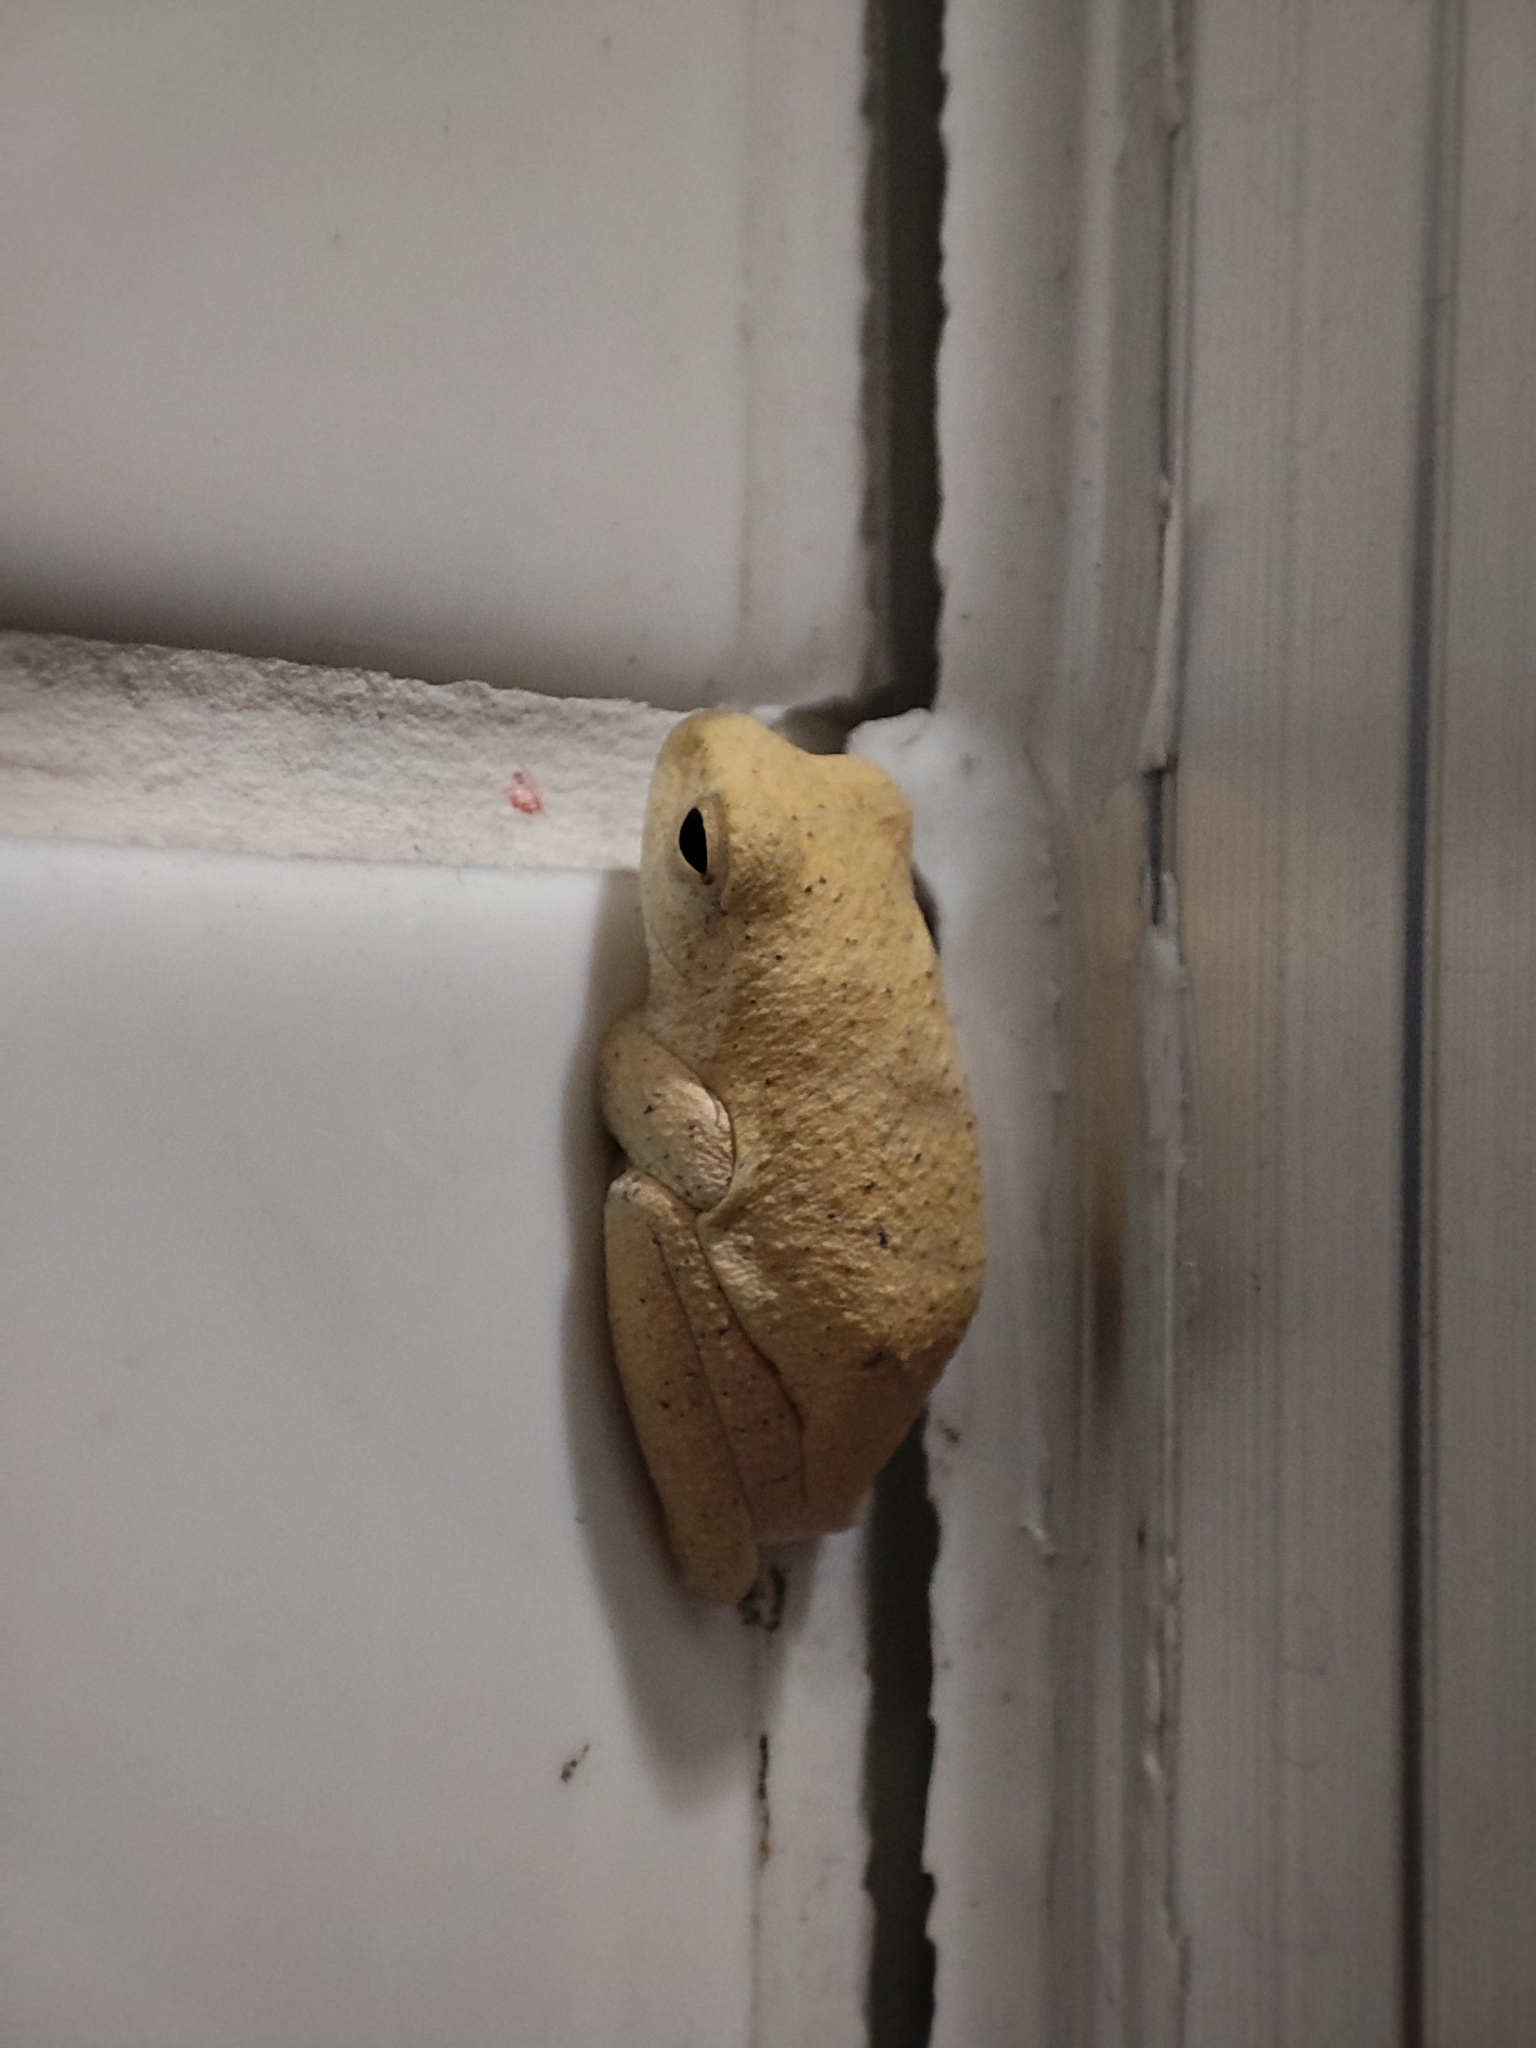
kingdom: Animalia
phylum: Chordata
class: Amphibia
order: Anura
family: Rhacophoridae
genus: Polypedates
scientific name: Polypedates megacephalus
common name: Hong kong whipping frog
